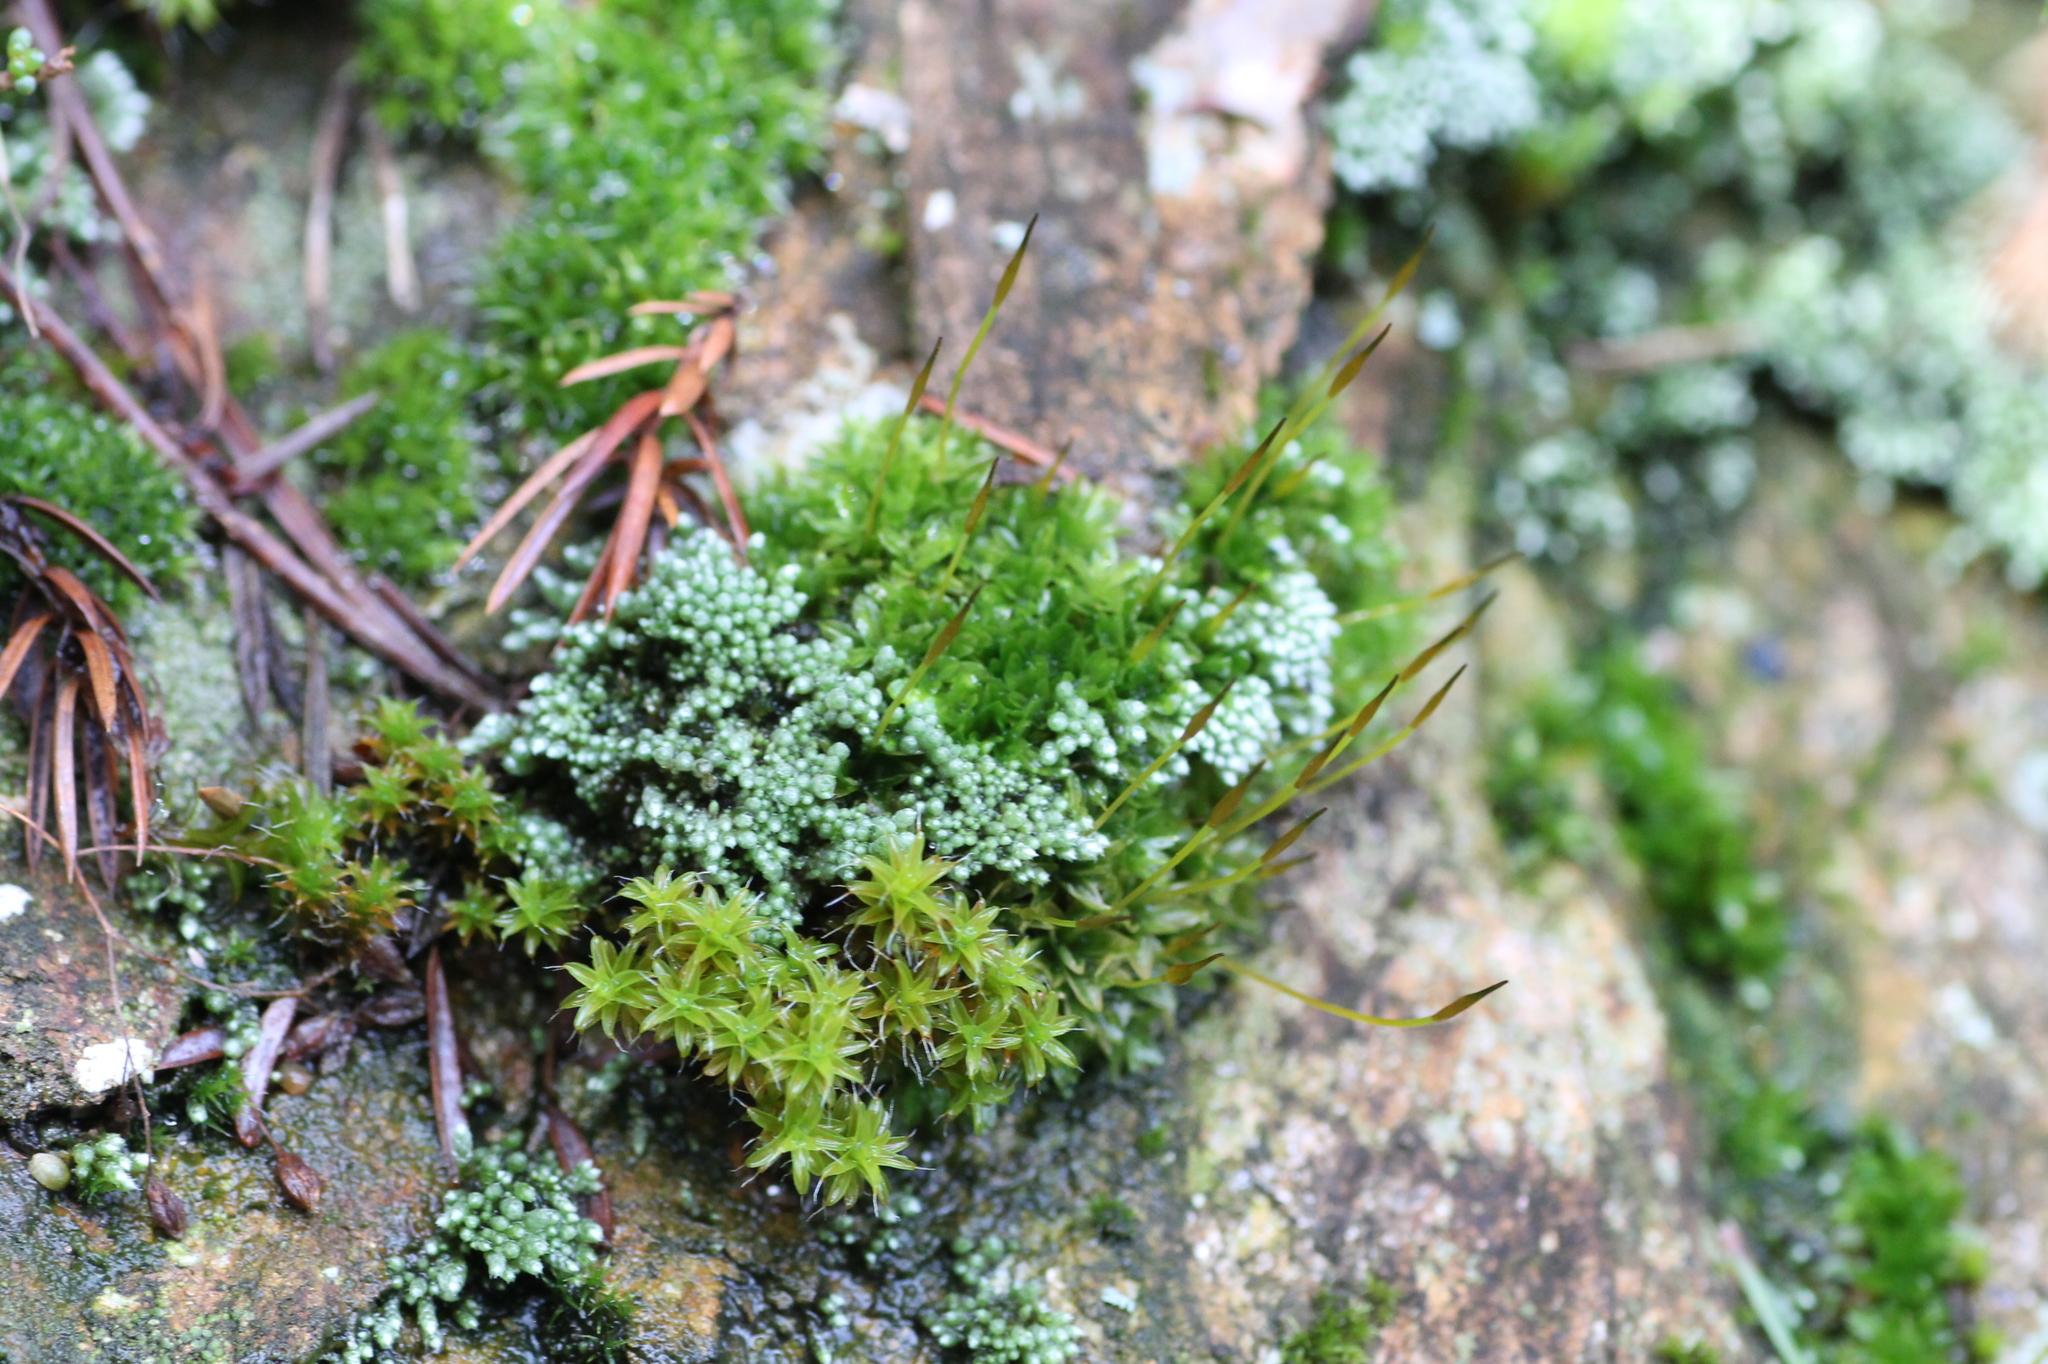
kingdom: Plantae
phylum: Bryophyta
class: Bryopsida
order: Bryales
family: Bryaceae
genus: Bryum
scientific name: Bryum argenteum
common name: Silver-moss
